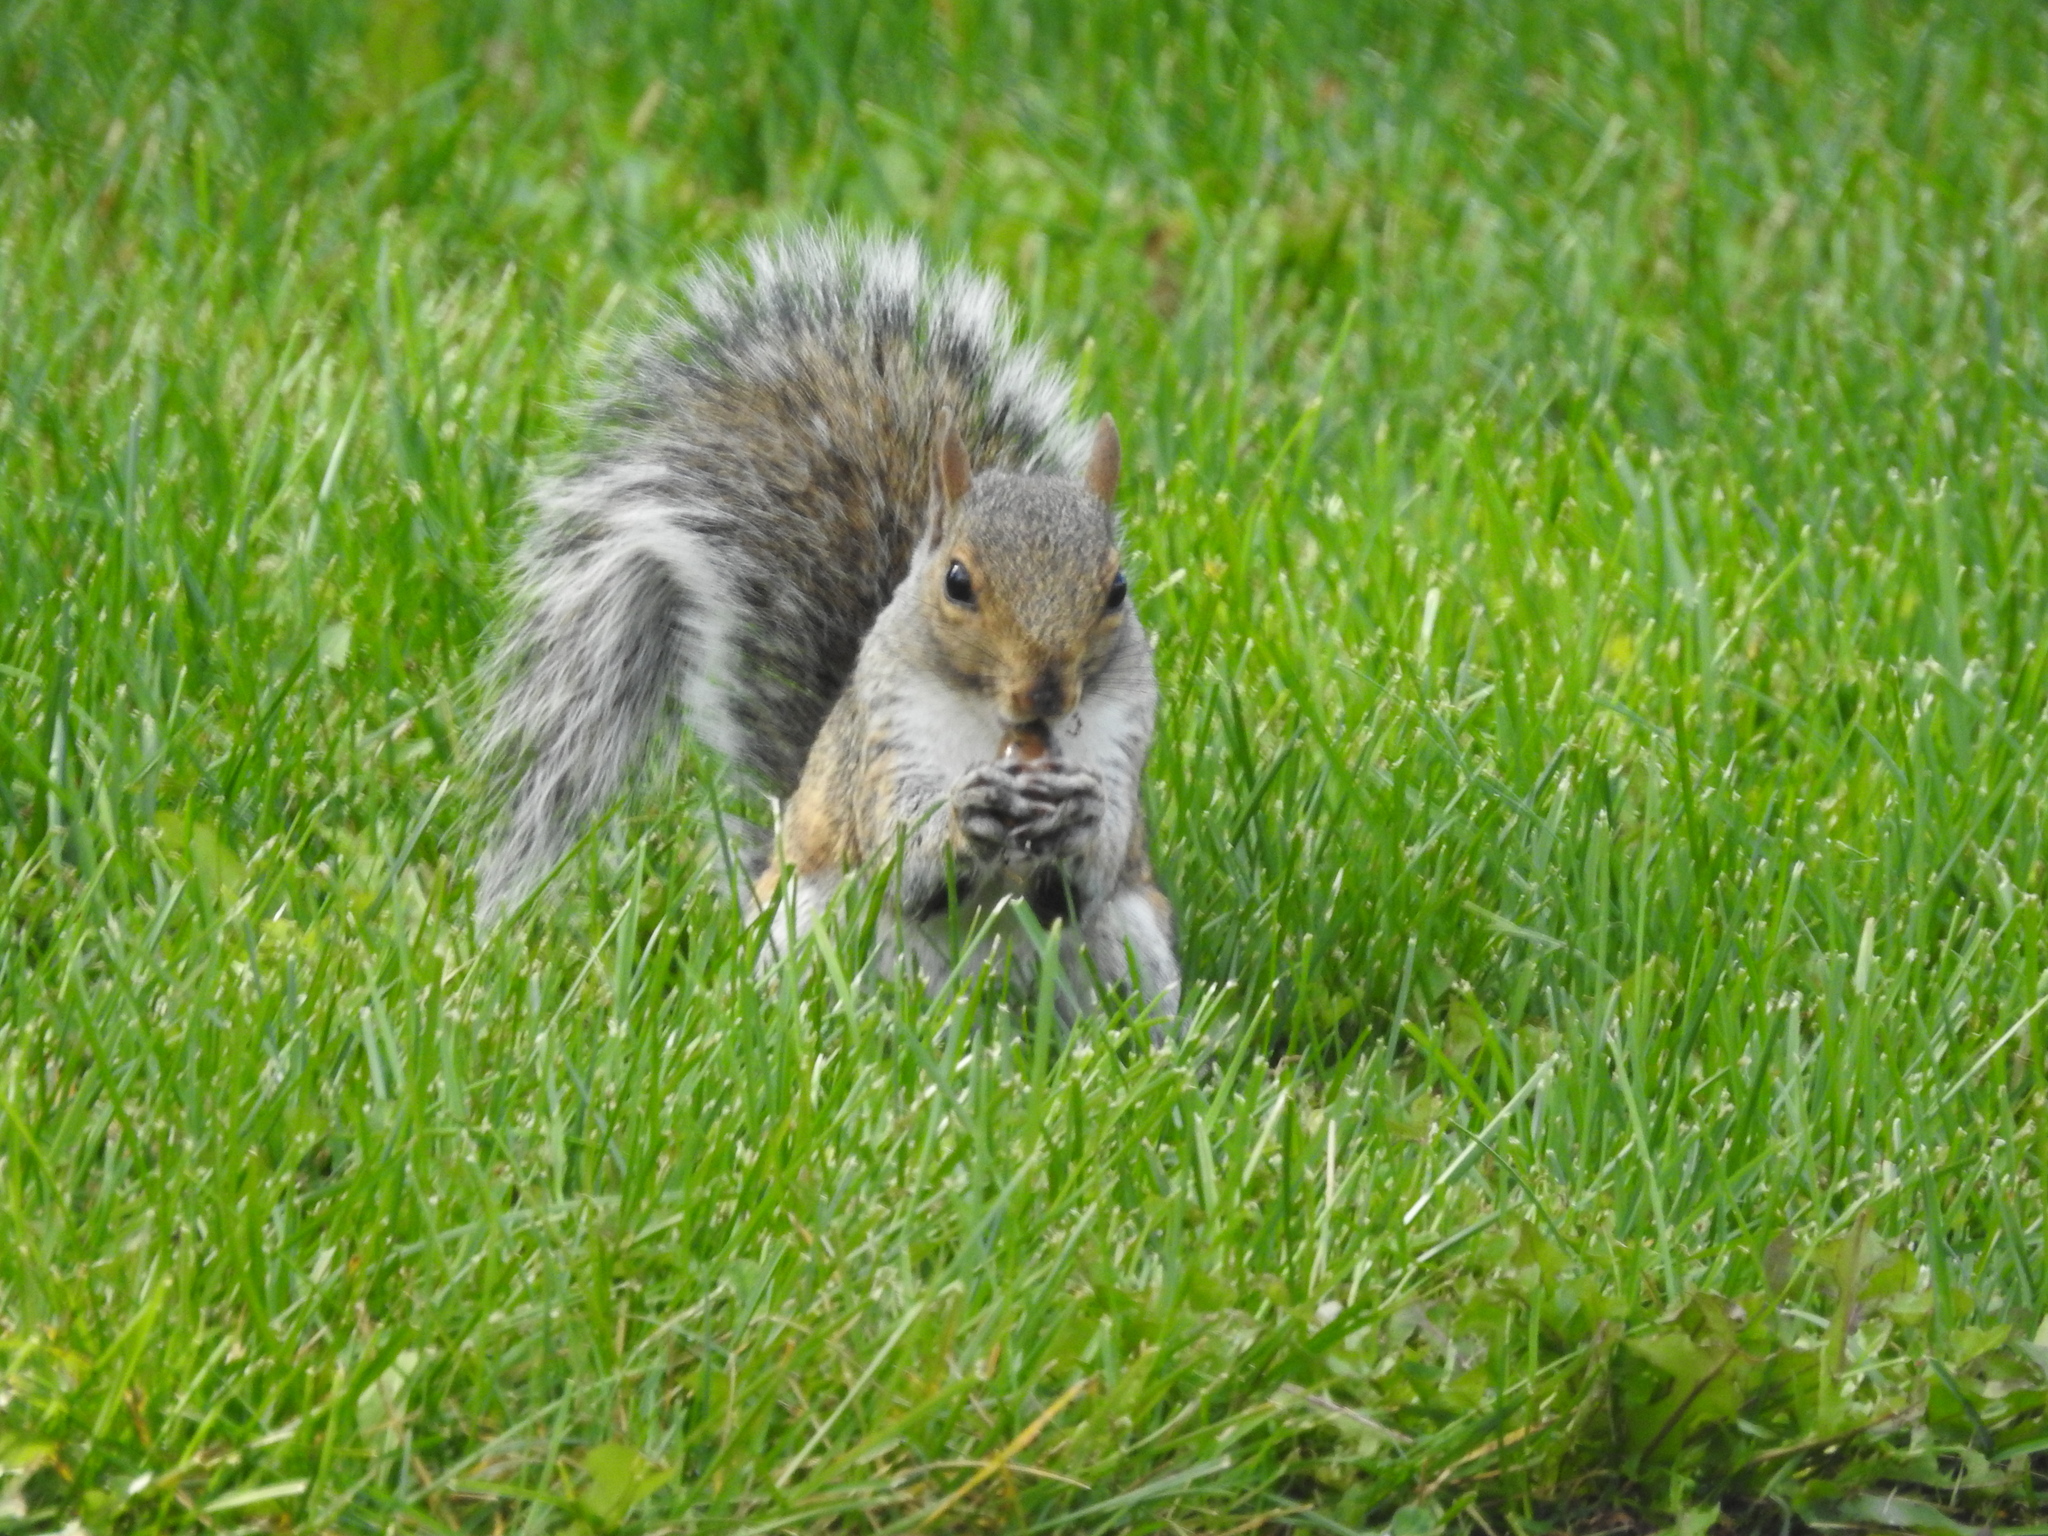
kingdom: Animalia
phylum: Chordata
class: Mammalia
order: Rodentia
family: Sciuridae
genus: Sciurus
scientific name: Sciurus carolinensis
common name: Eastern gray squirrel
